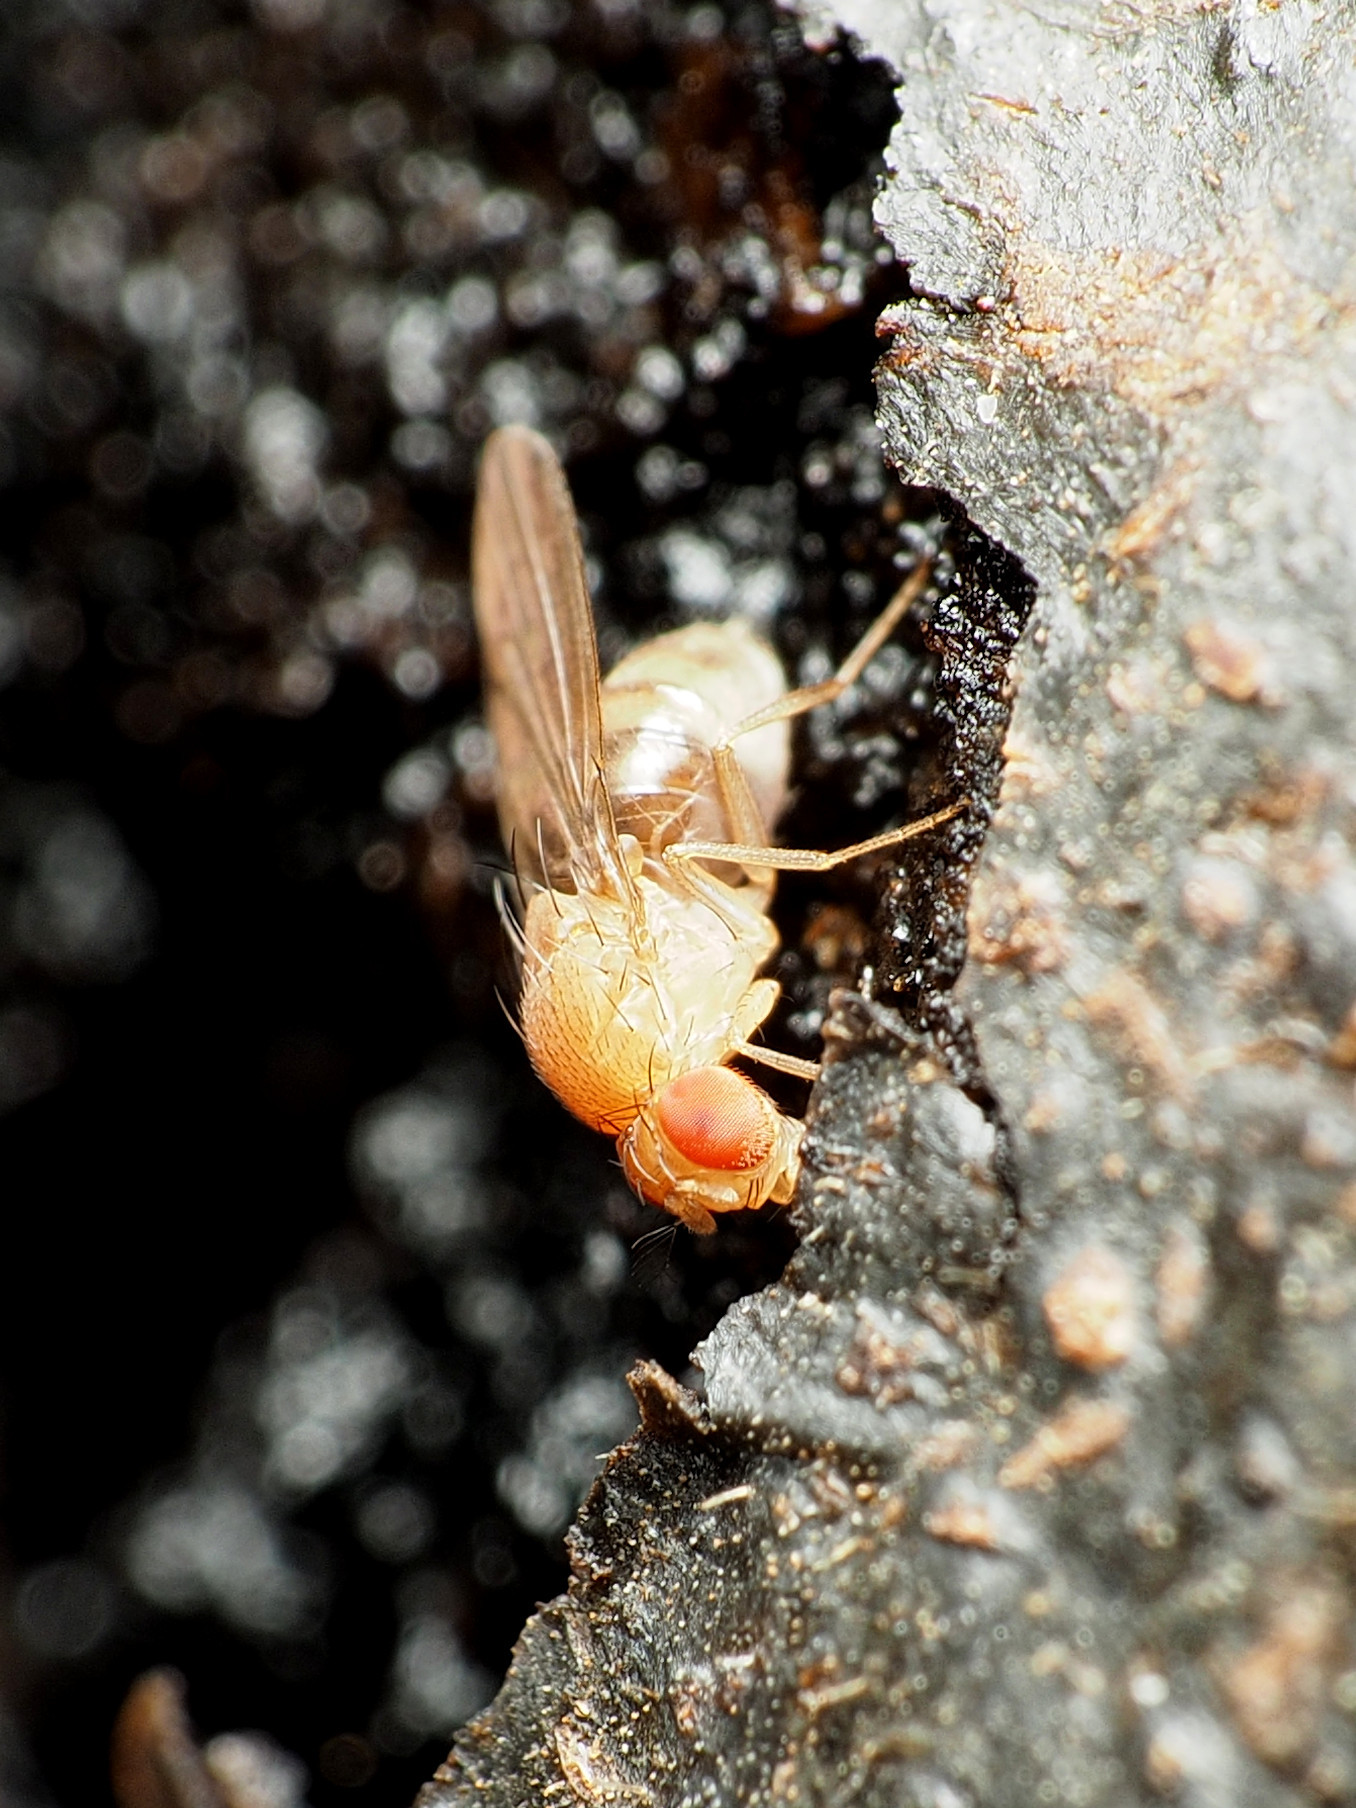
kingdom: Animalia
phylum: Arthropoda
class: Insecta
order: Diptera
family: Drosophilidae
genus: Drosophila
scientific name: Drosophila tripunctata
